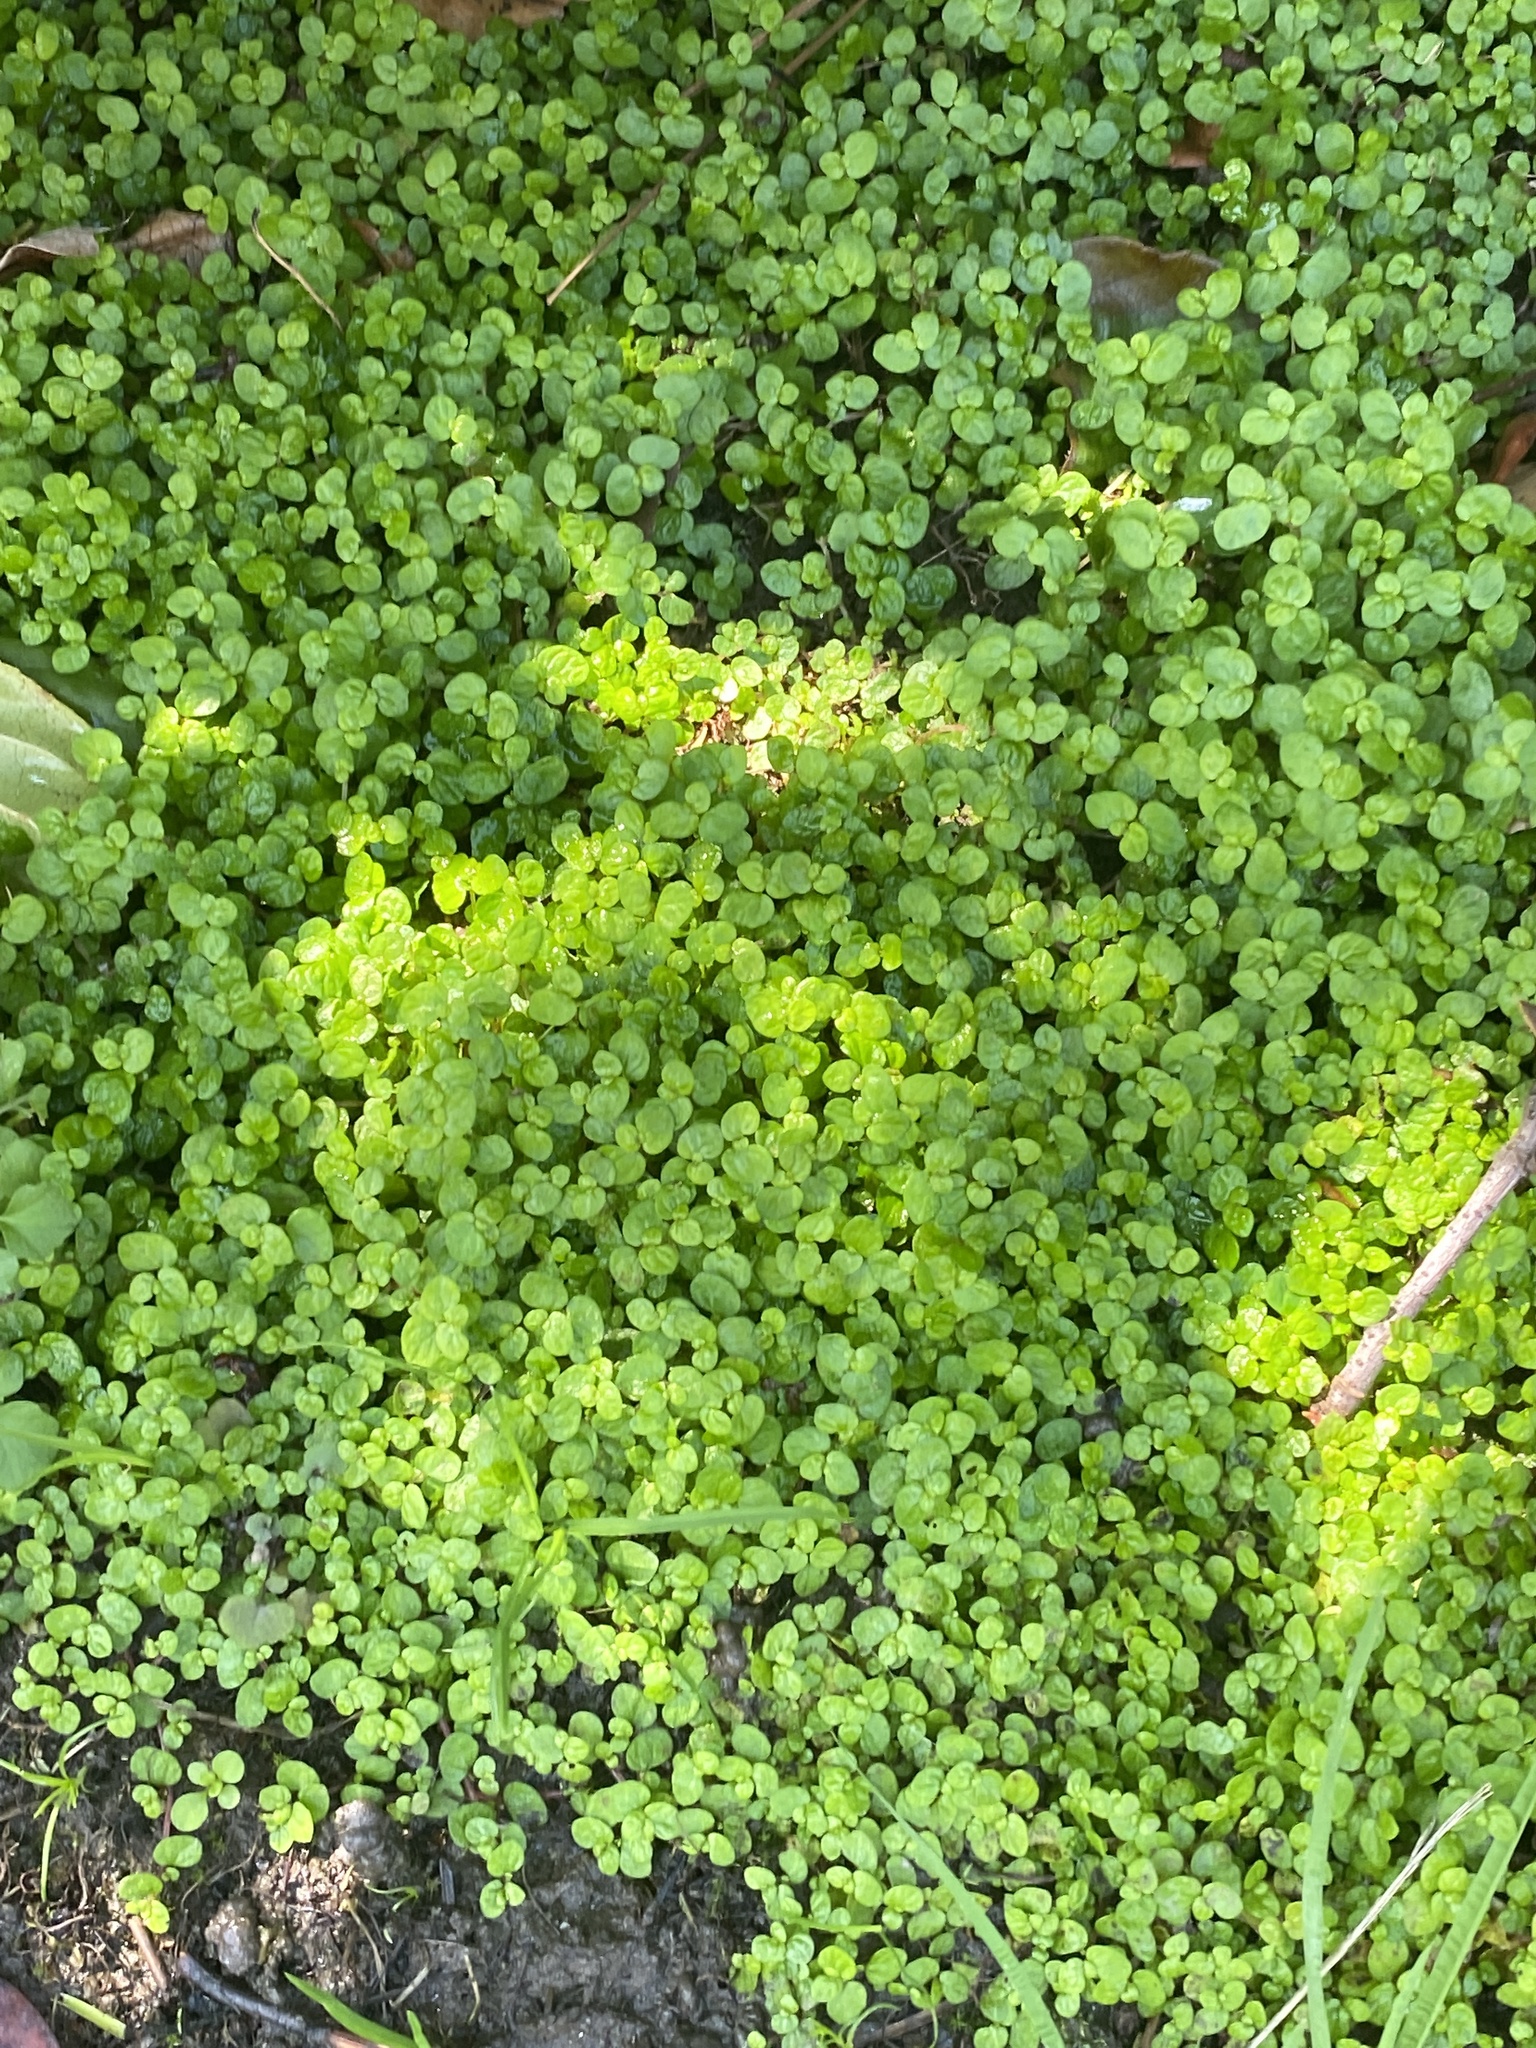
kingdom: Plantae
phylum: Tracheophyta
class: Magnoliopsida
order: Rosales
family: Urticaceae
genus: Soleirolia
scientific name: Soleirolia soleirolii
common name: Mind-your-own-business
